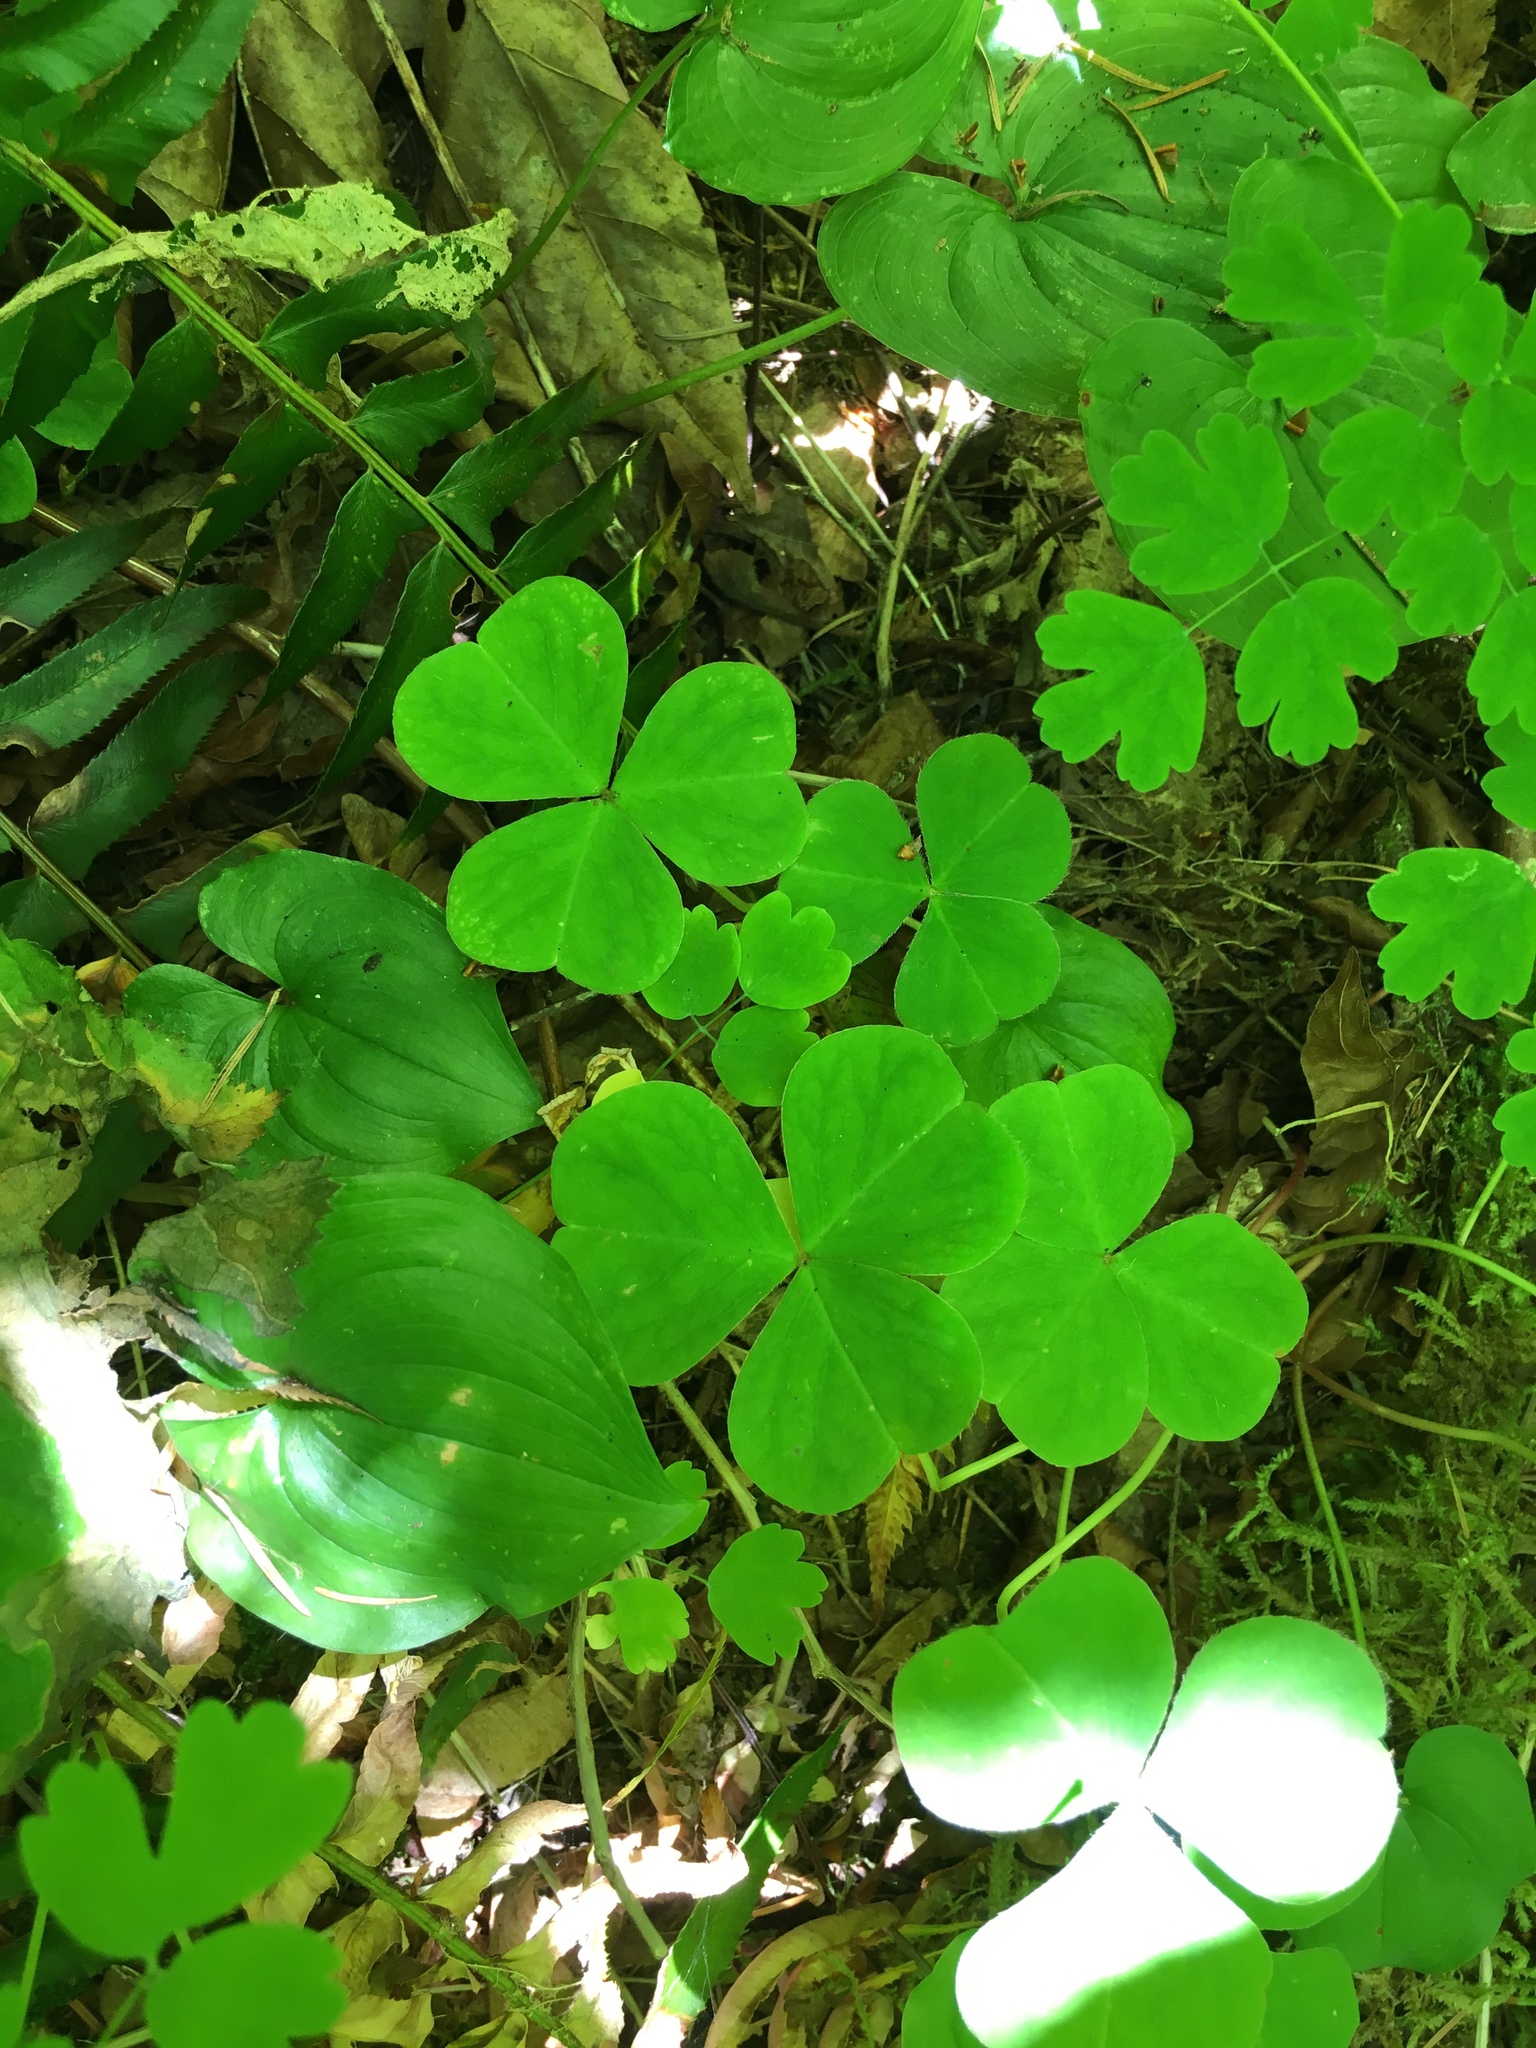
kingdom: Plantae
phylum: Tracheophyta
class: Magnoliopsida
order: Oxalidales
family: Oxalidaceae
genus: Oxalis
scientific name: Oxalis oregana
